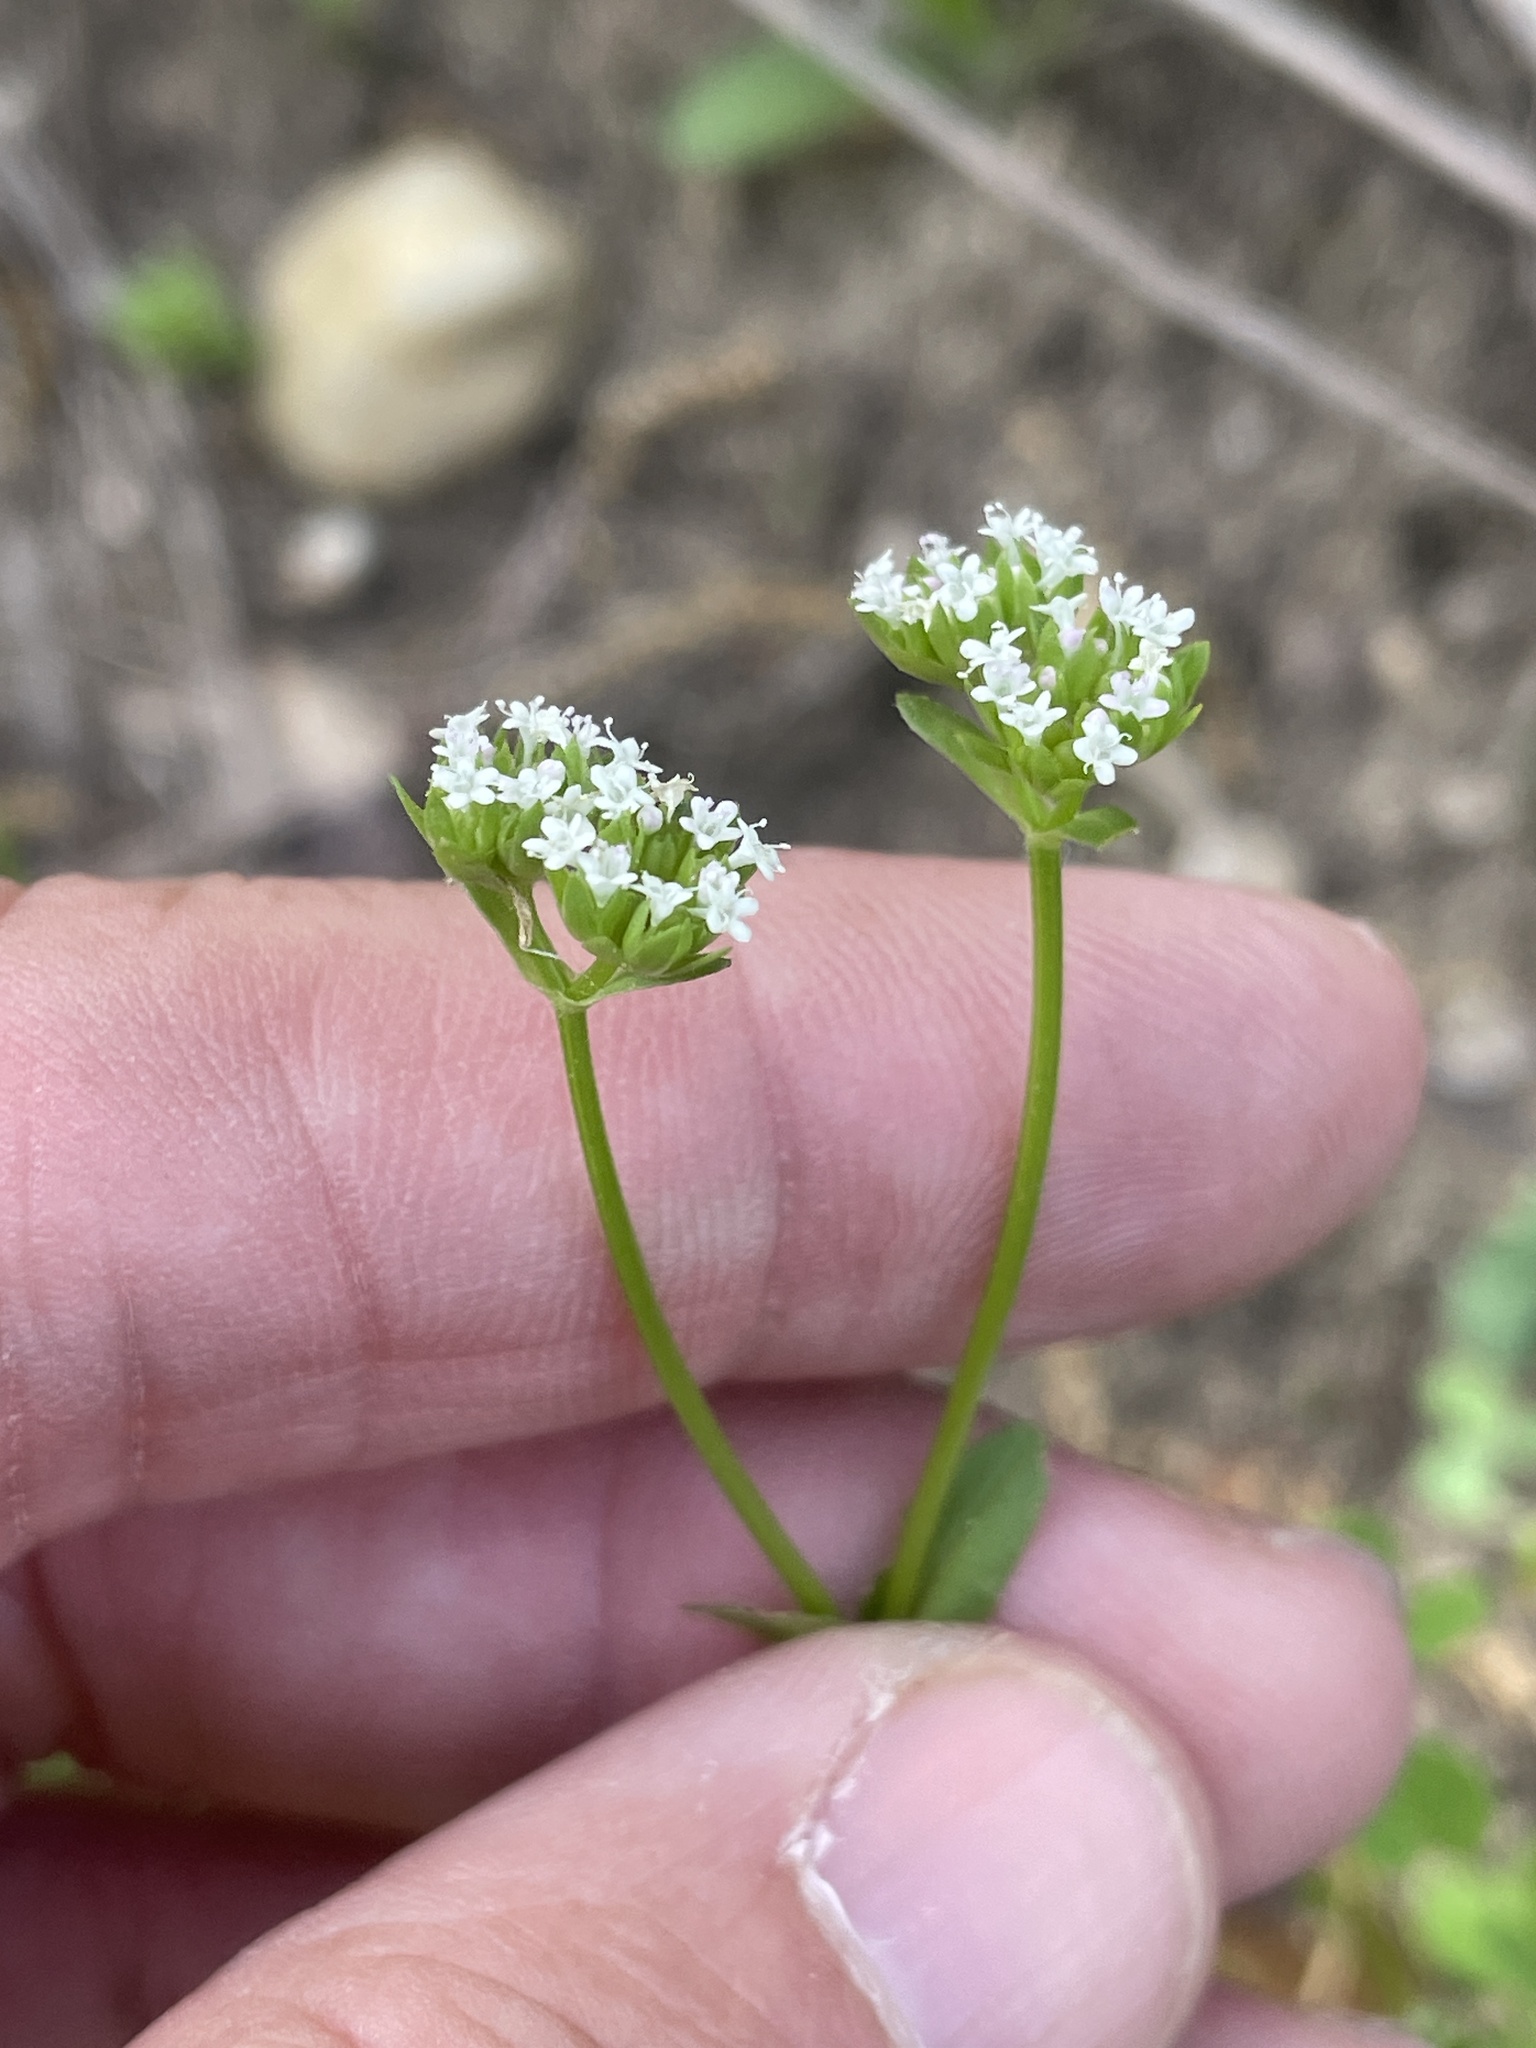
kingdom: Plantae
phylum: Tracheophyta
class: Magnoliopsida
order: Dipsacales
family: Caprifoliaceae
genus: Valerianella
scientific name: Valerianella radiata
